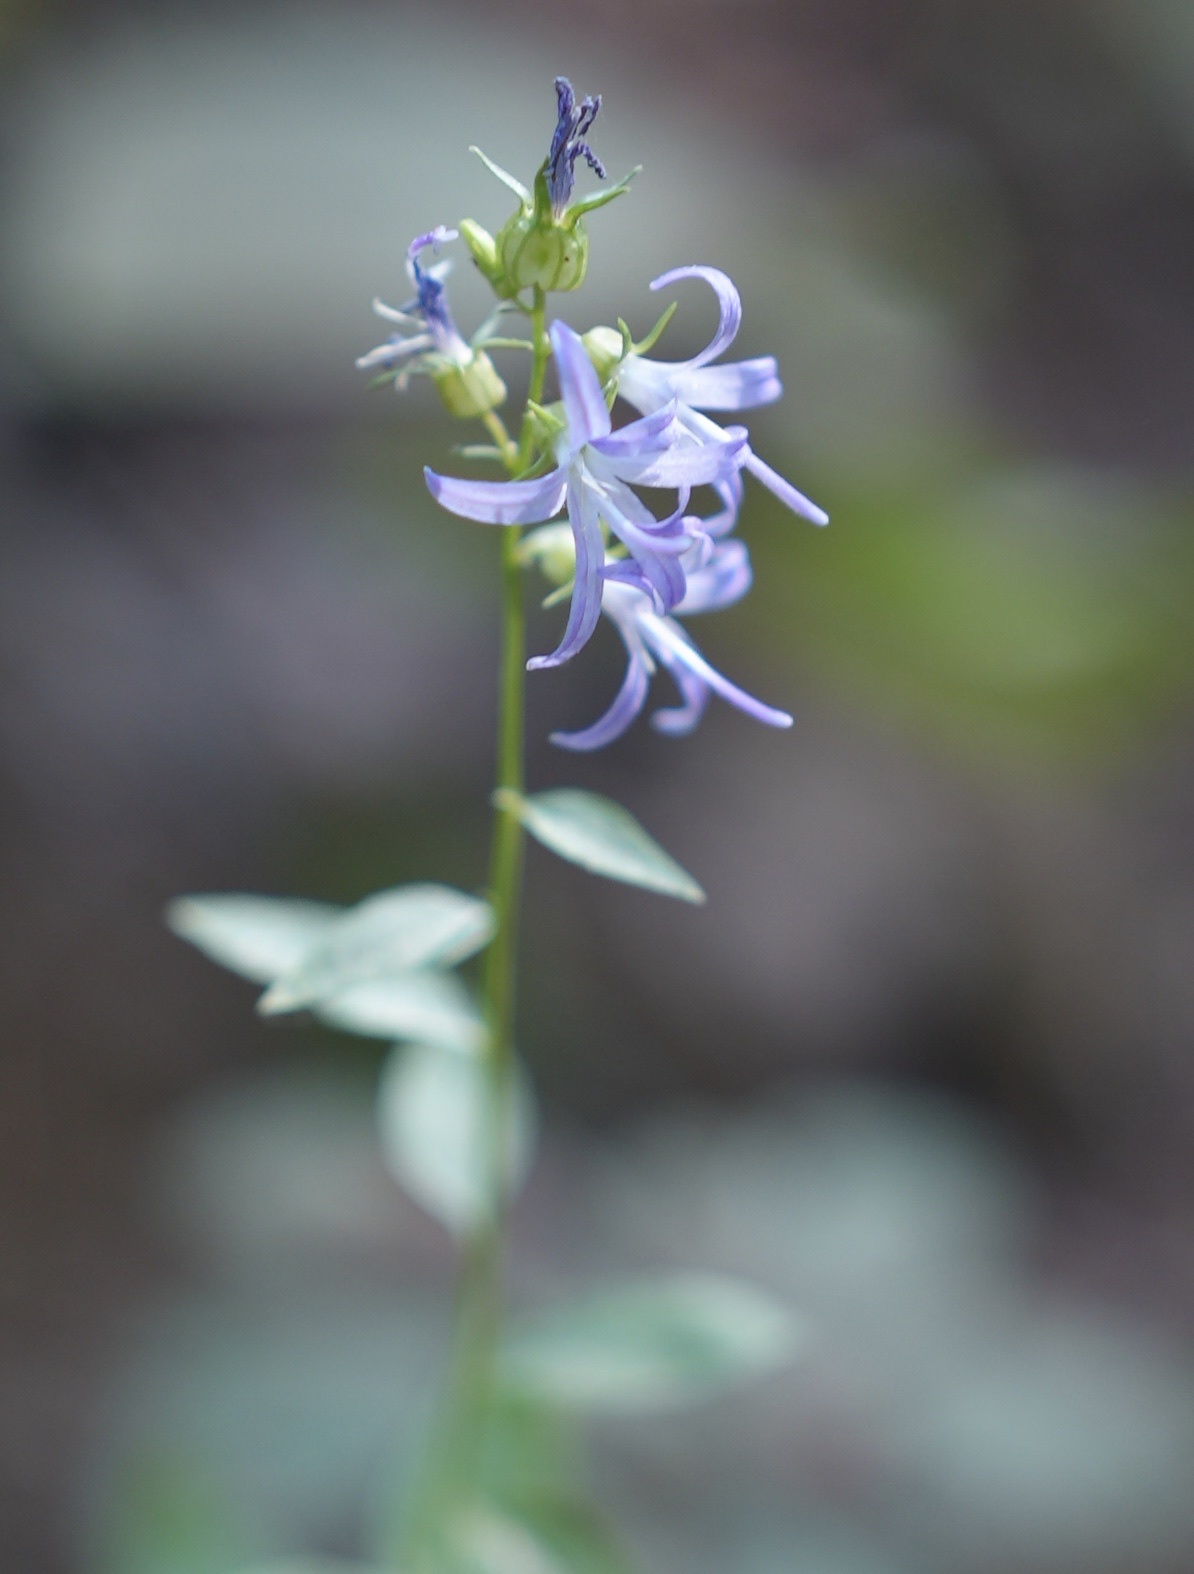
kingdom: Plantae
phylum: Tracheophyta
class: Magnoliopsida
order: Asterales
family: Campanulaceae
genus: Smithiastrum
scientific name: Smithiastrum prenanthoides
